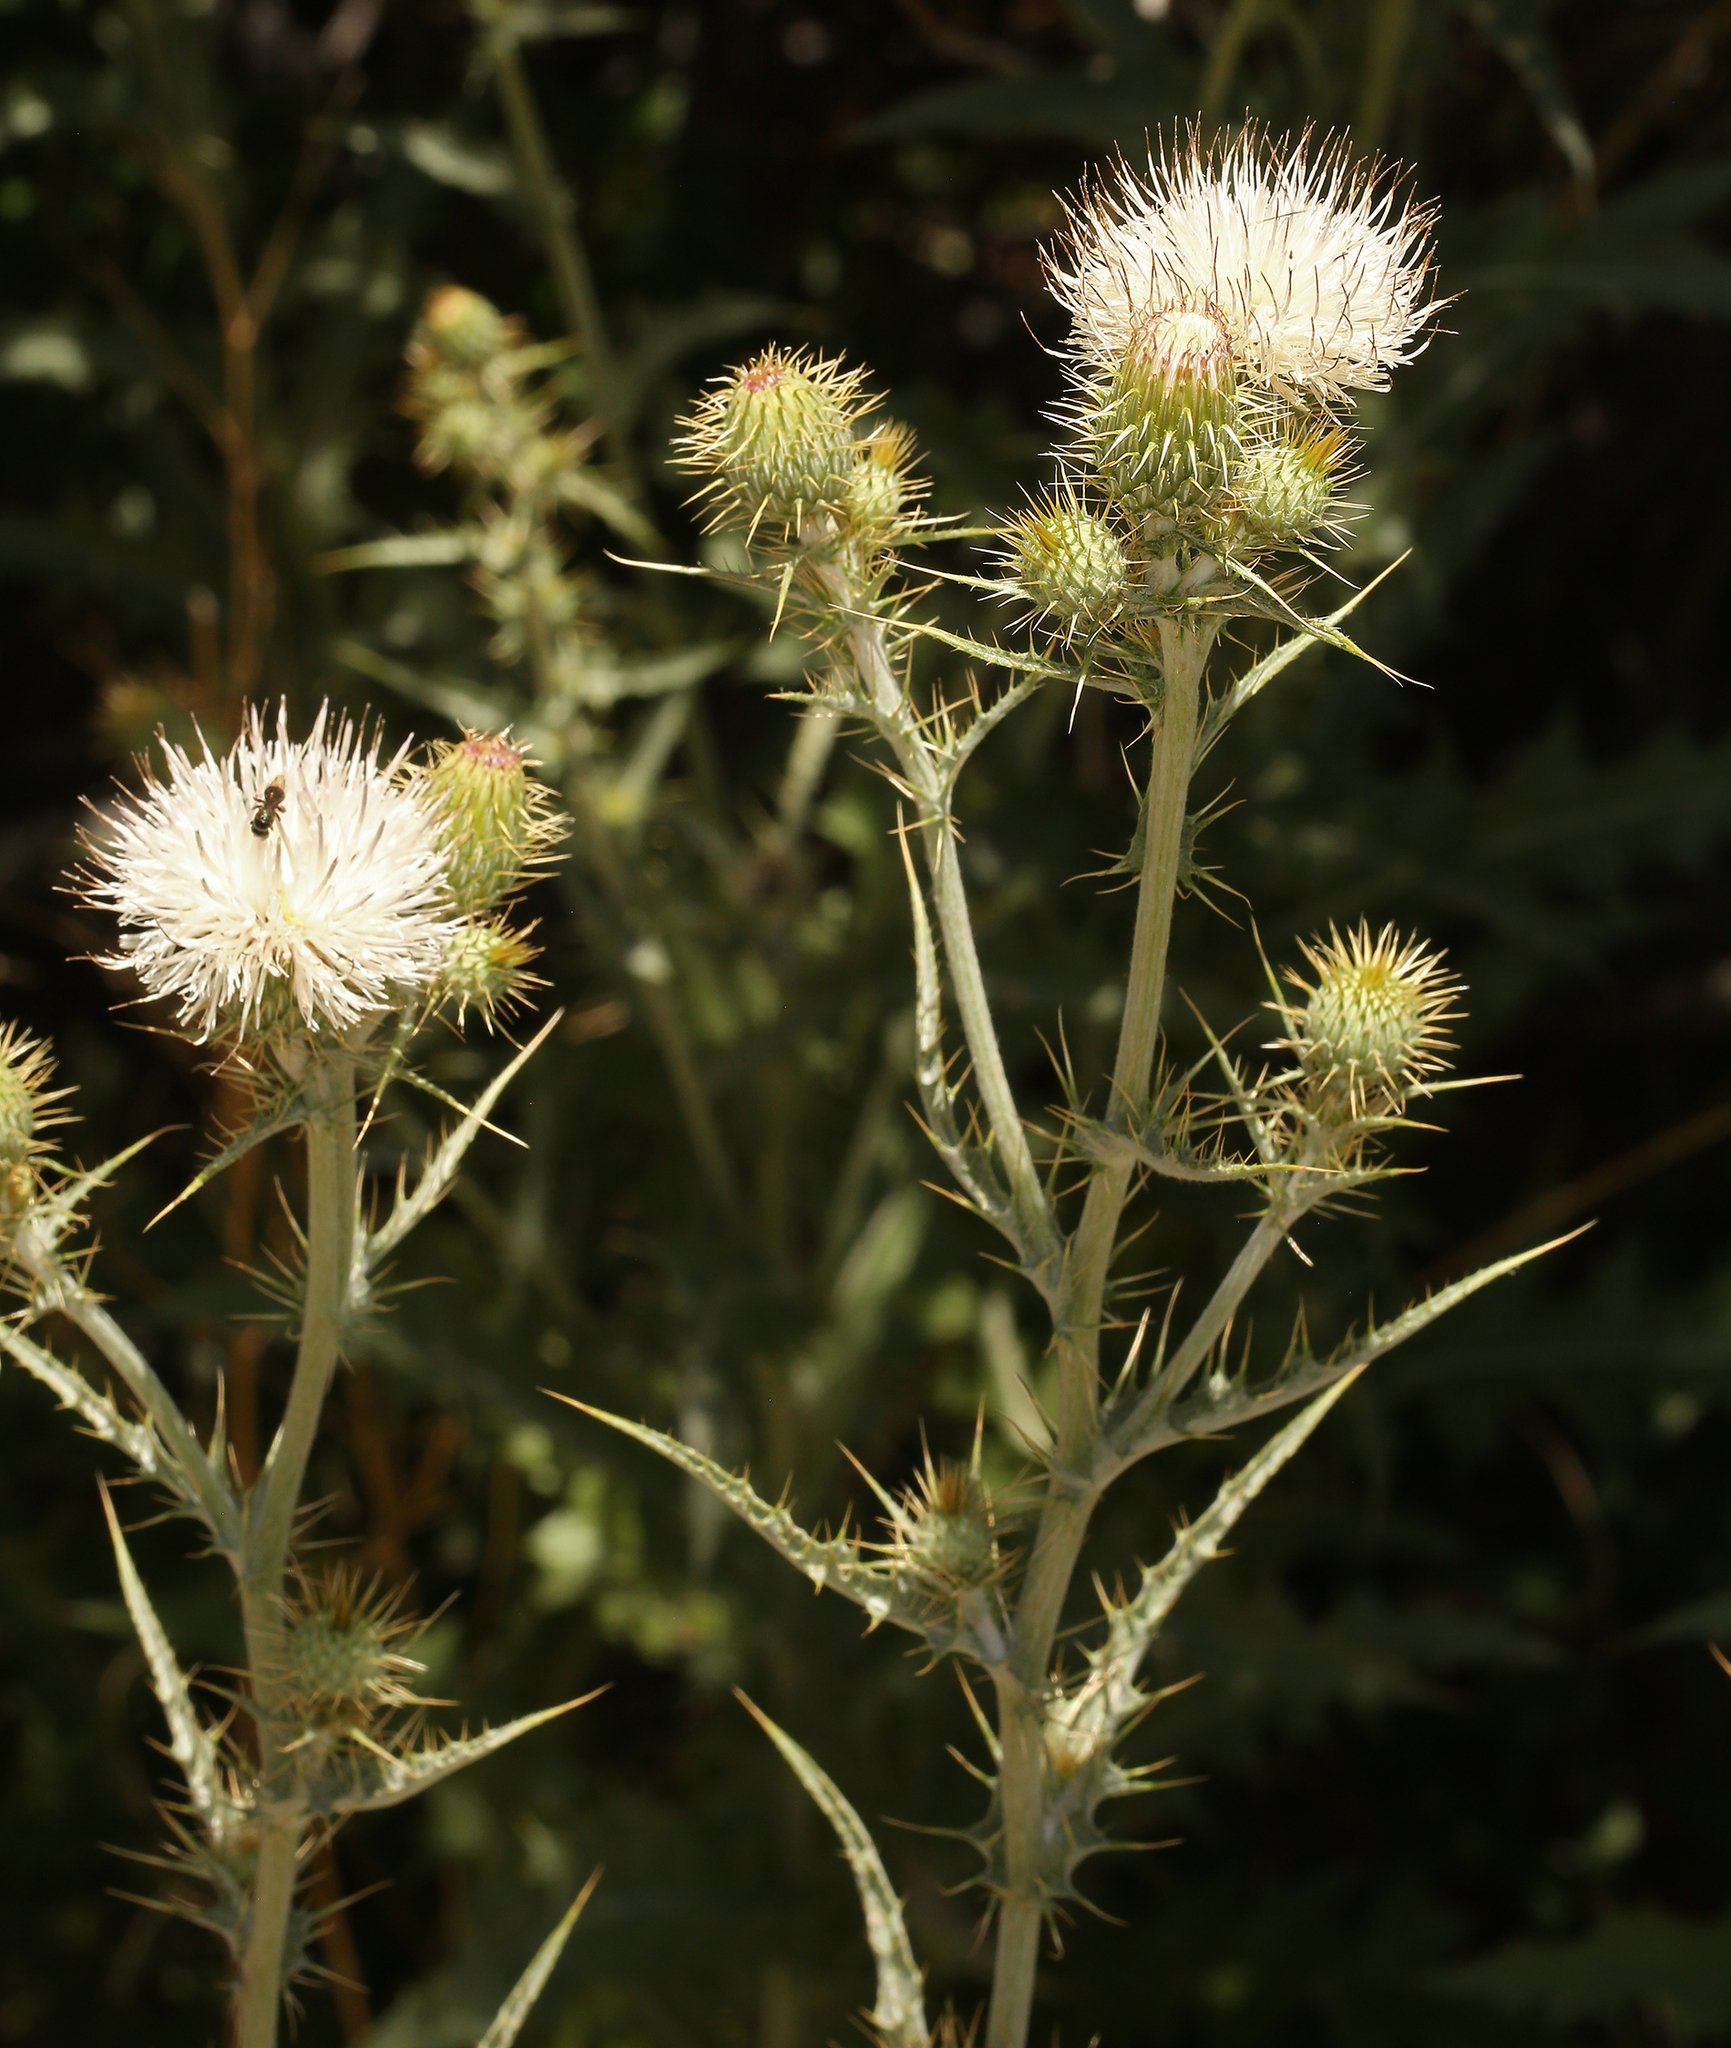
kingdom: Plantae
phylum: Tracheophyta
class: Magnoliopsida
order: Asterales
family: Asteraceae
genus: Cirsium
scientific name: Cirsium mohavense
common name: Mojave thistle
